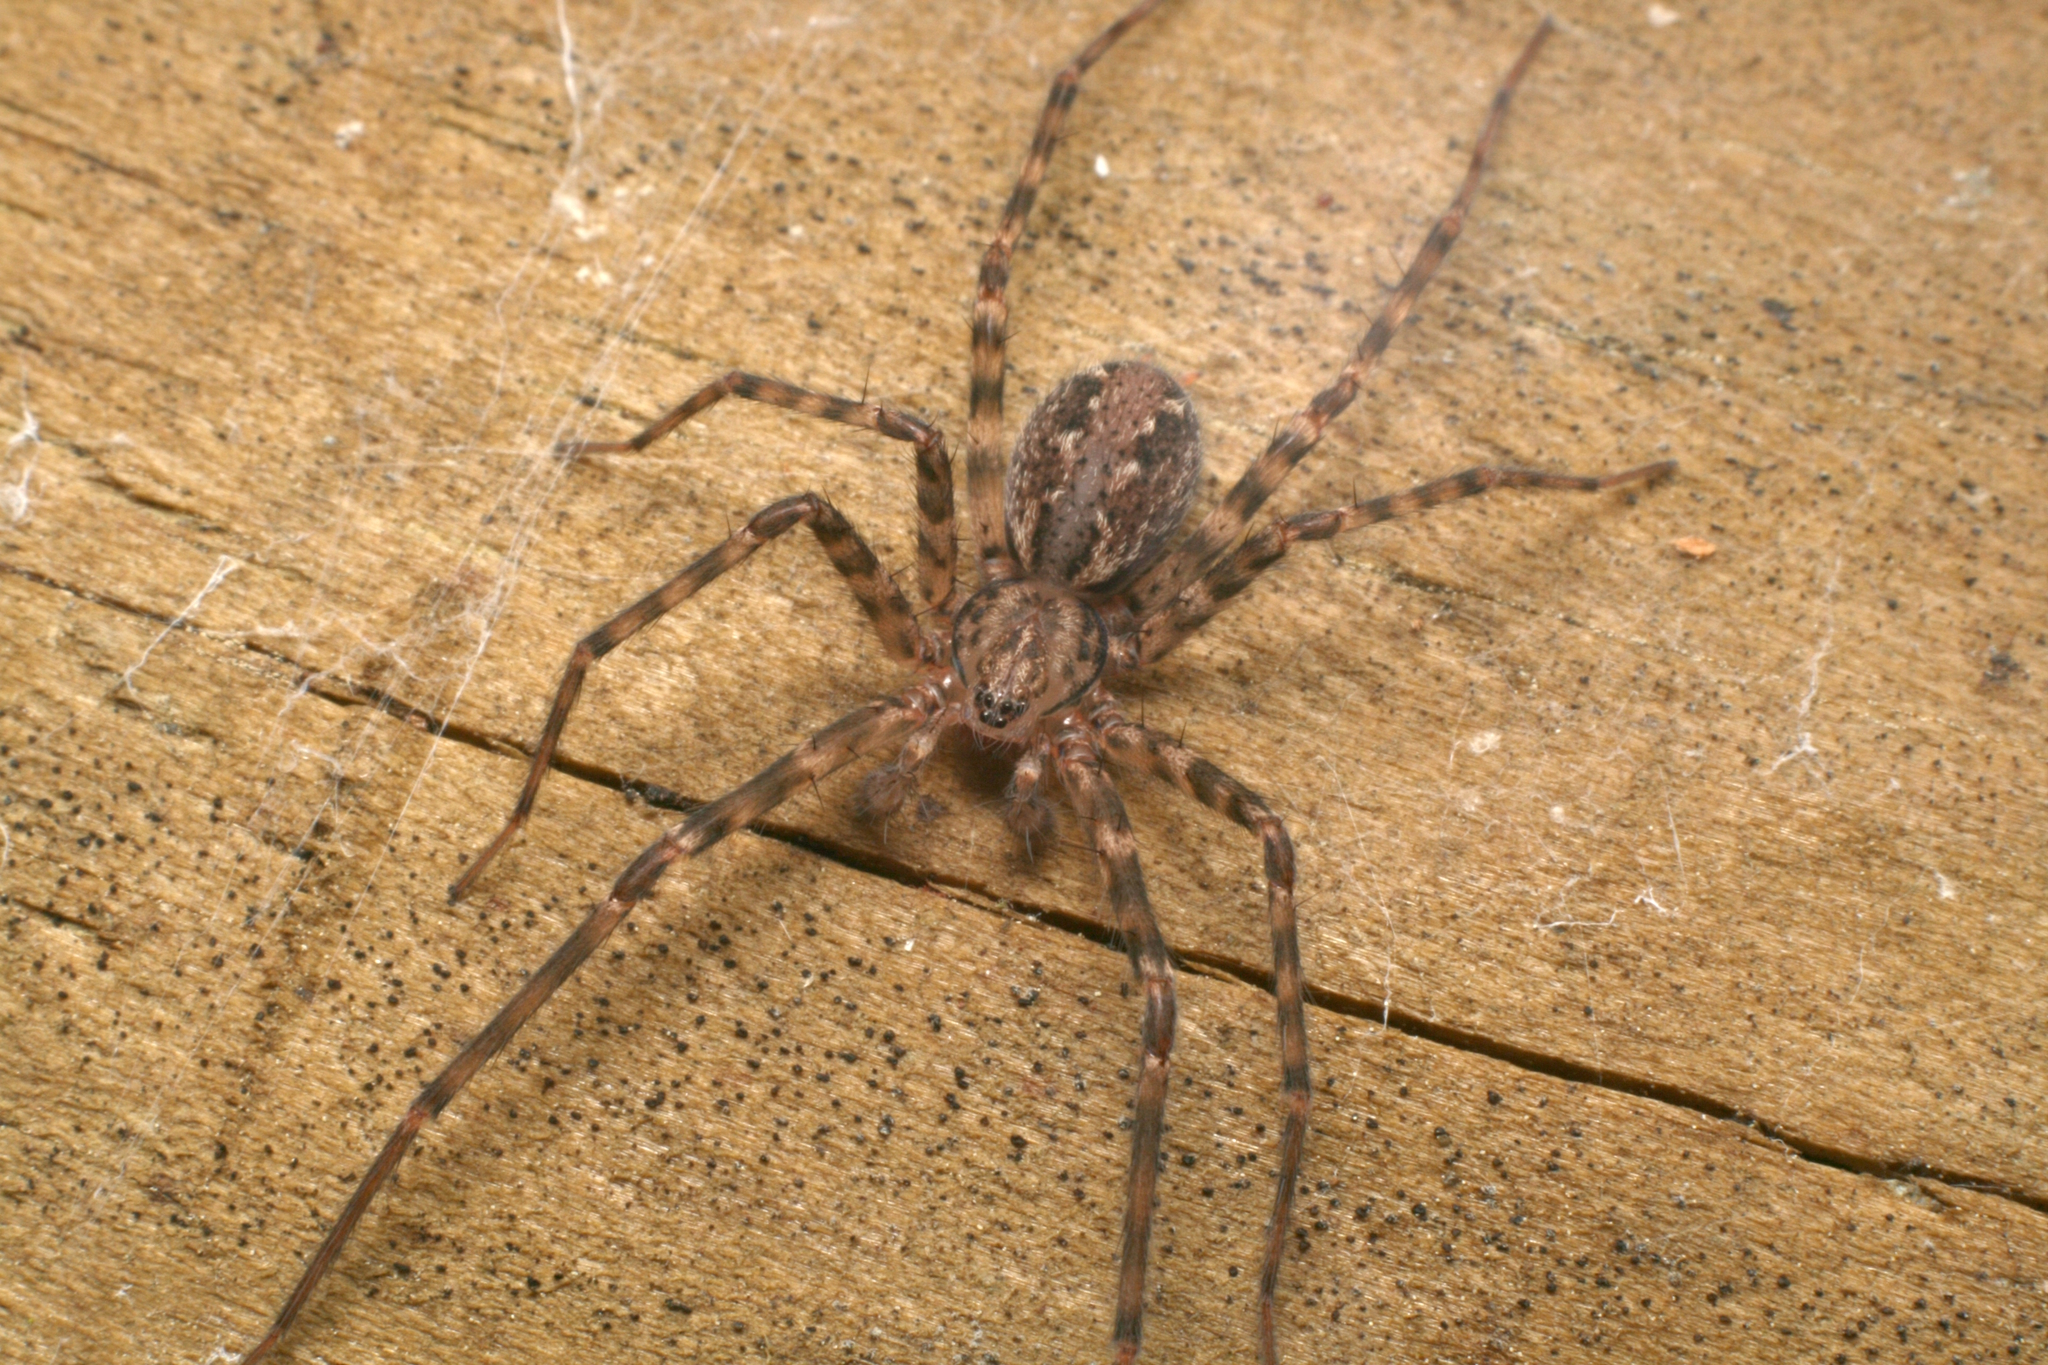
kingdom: Animalia
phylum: Arthropoda
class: Arachnida
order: Araneae
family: Stiphidiidae
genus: Stiphidion
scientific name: Stiphidion facetum
